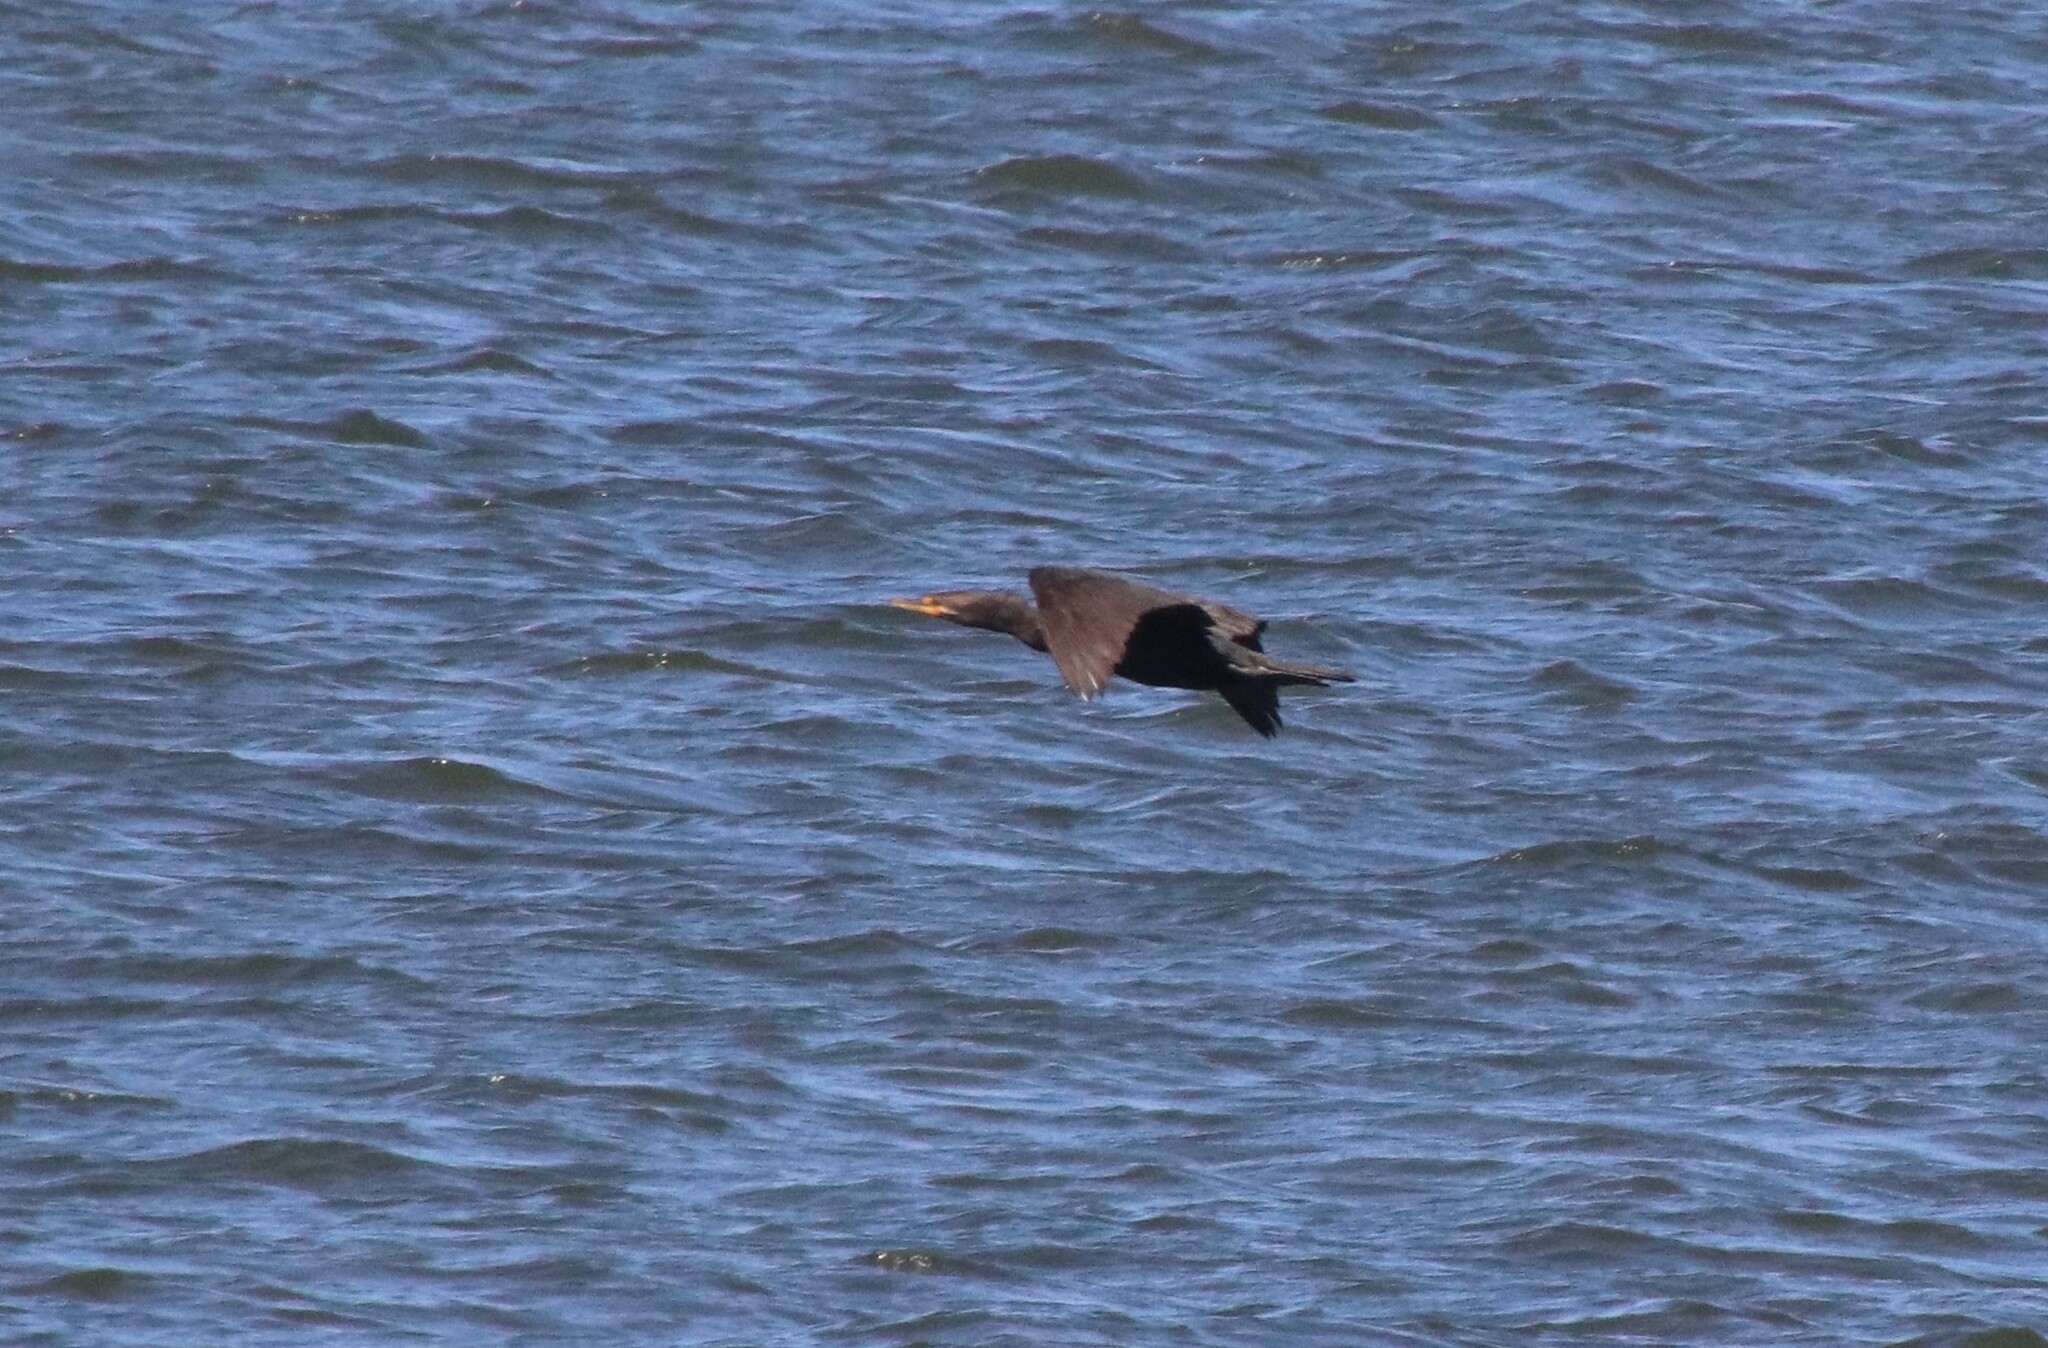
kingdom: Animalia
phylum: Chordata
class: Aves
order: Suliformes
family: Phalacrocoracidae
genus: Phalacrocorax
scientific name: Phalacrocorax auritus
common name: Double-crested cormorant
